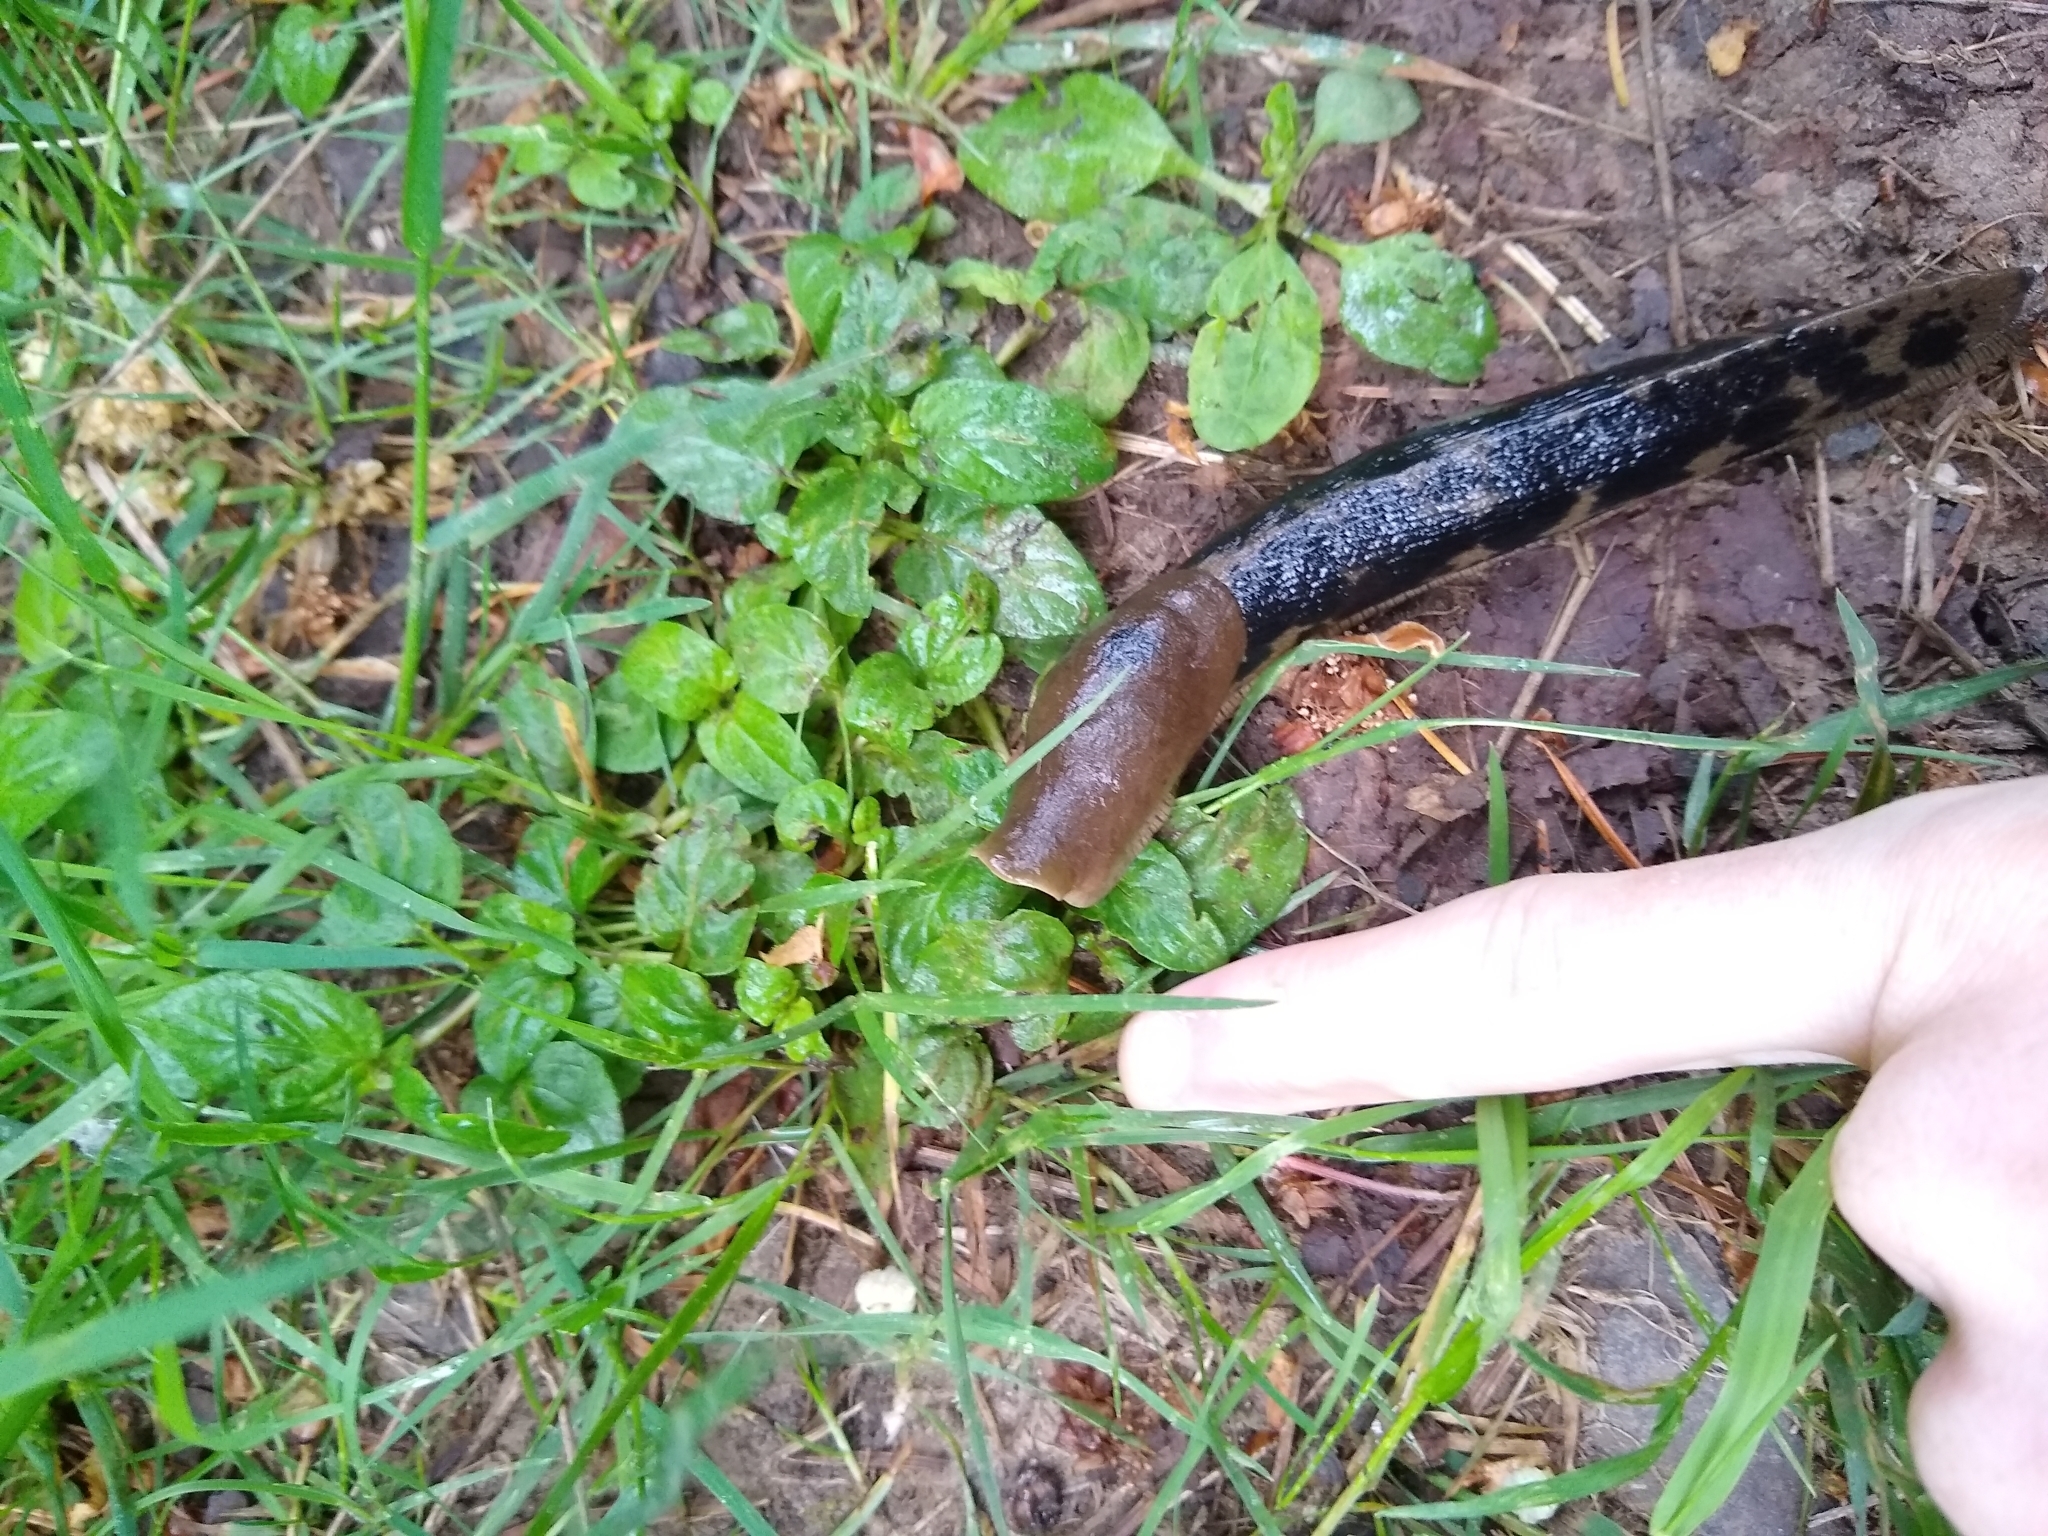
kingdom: Animalia
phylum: Mollusca
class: Gastropoda
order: Stylommatophora
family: Ariolimacidae
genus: Ariolimax
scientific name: Ariolimax columbianus
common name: Pacific banana slug
